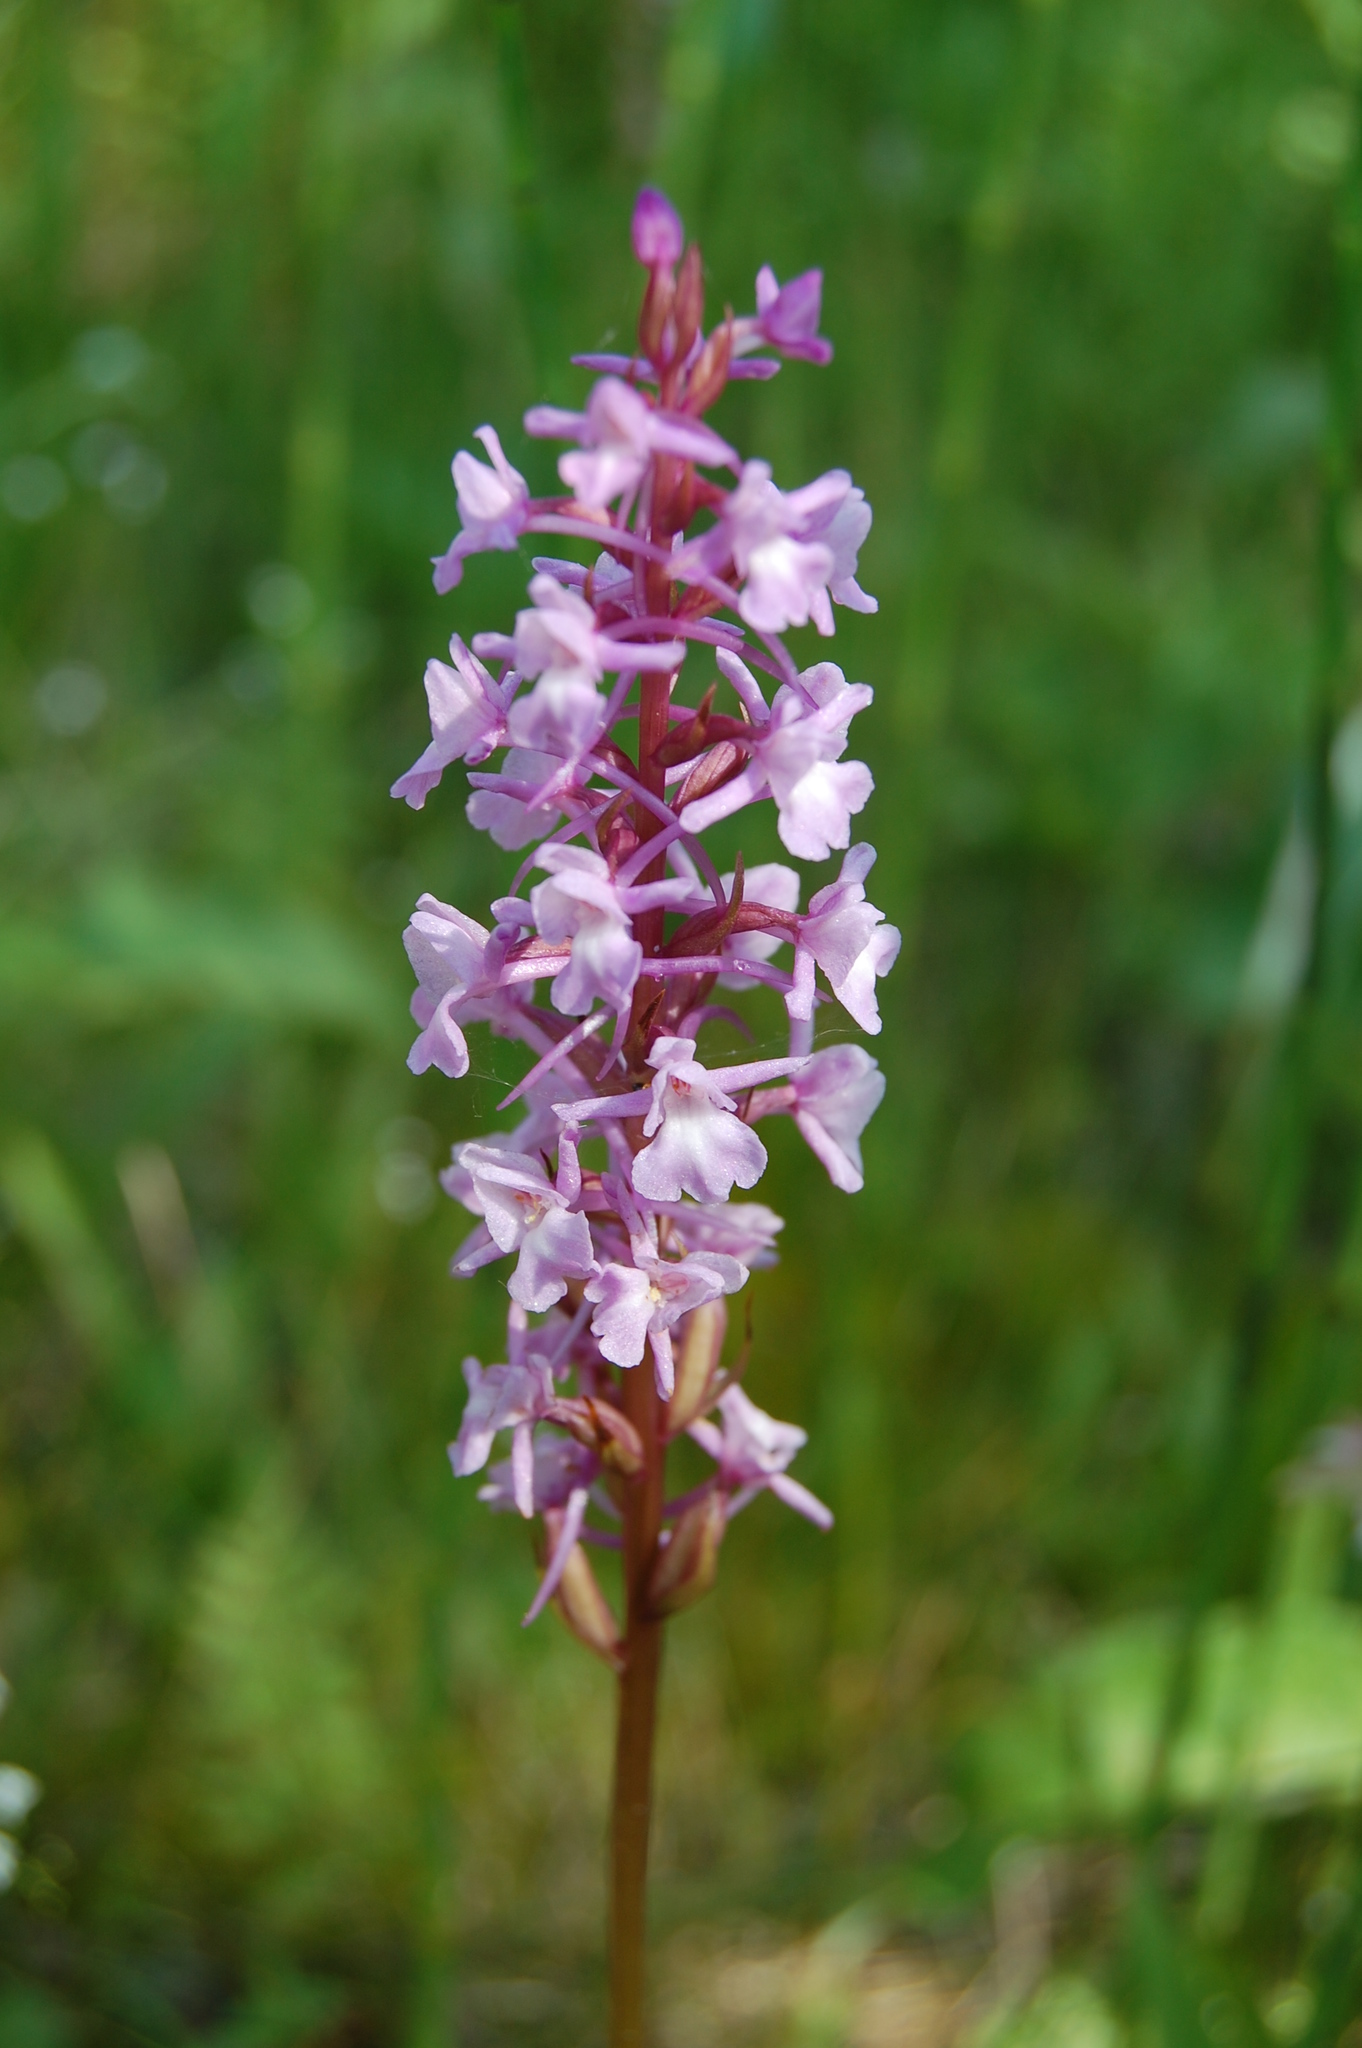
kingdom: Plantae
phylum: Tracheophyta
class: Liliopsida
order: Asparagales
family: Orchidaceae
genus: Gymnadenia
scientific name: Gymnadenia conopsea
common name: Fragrant orchid
